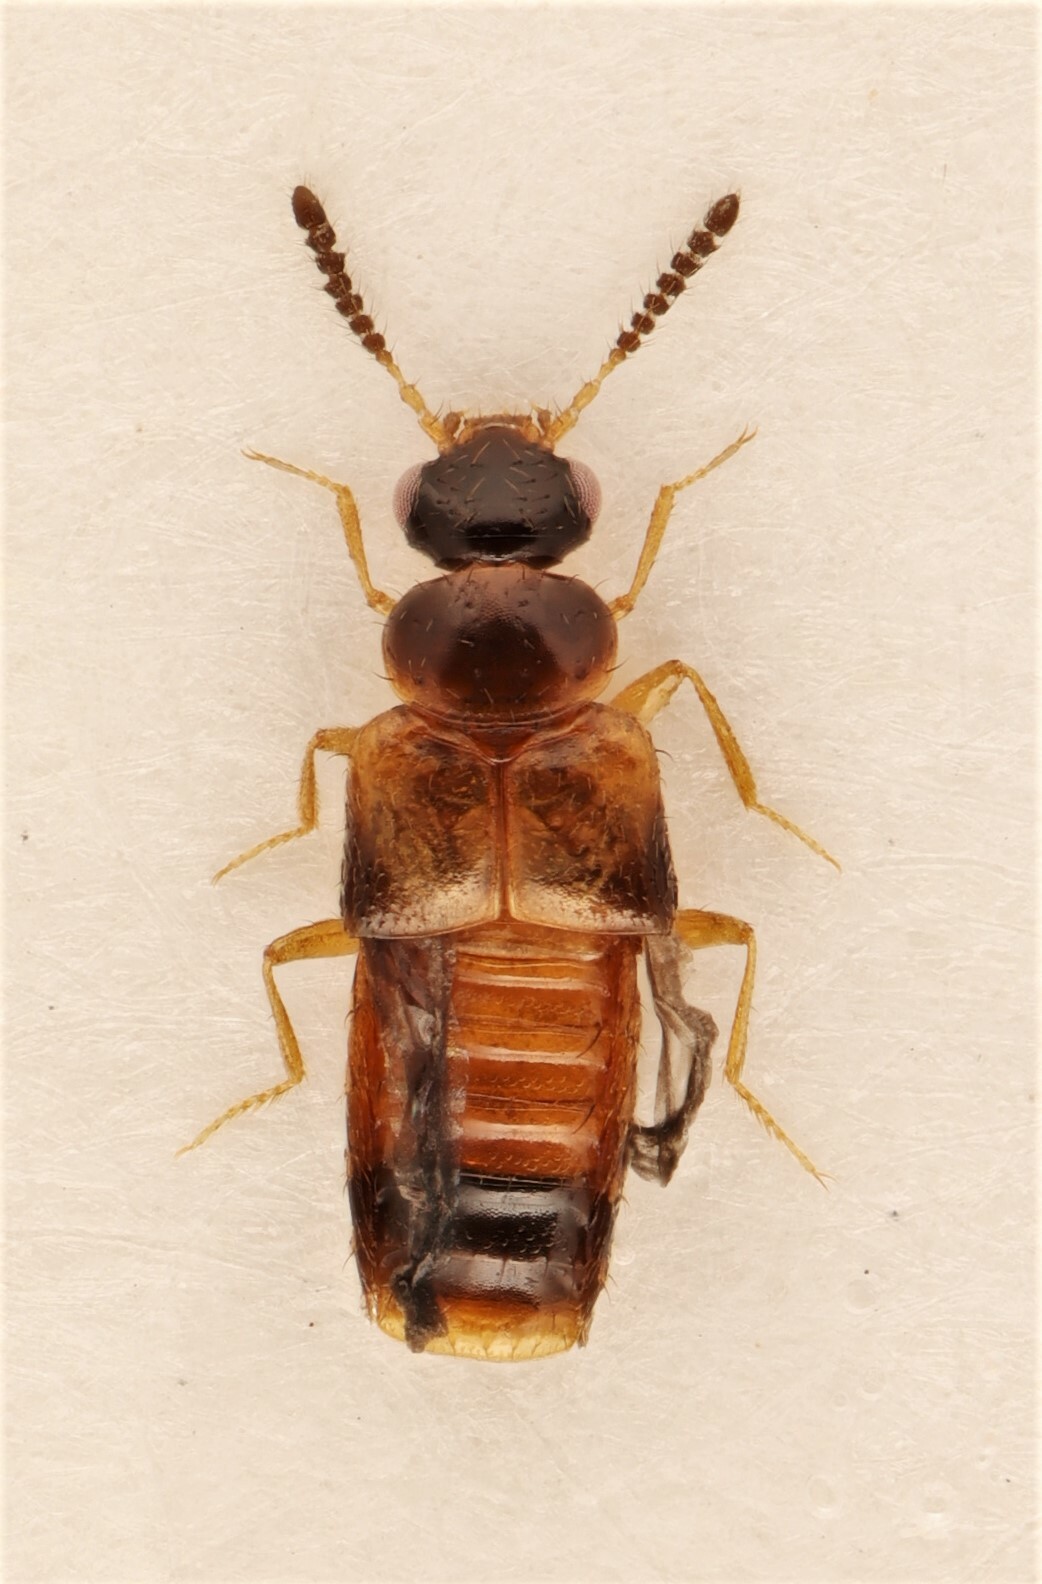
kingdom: Animalia
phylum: Arthropoda
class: Insecta
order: Coleoptera
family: Staphylinidae
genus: Gyrophaena
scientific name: Gyrophaena gaudens
